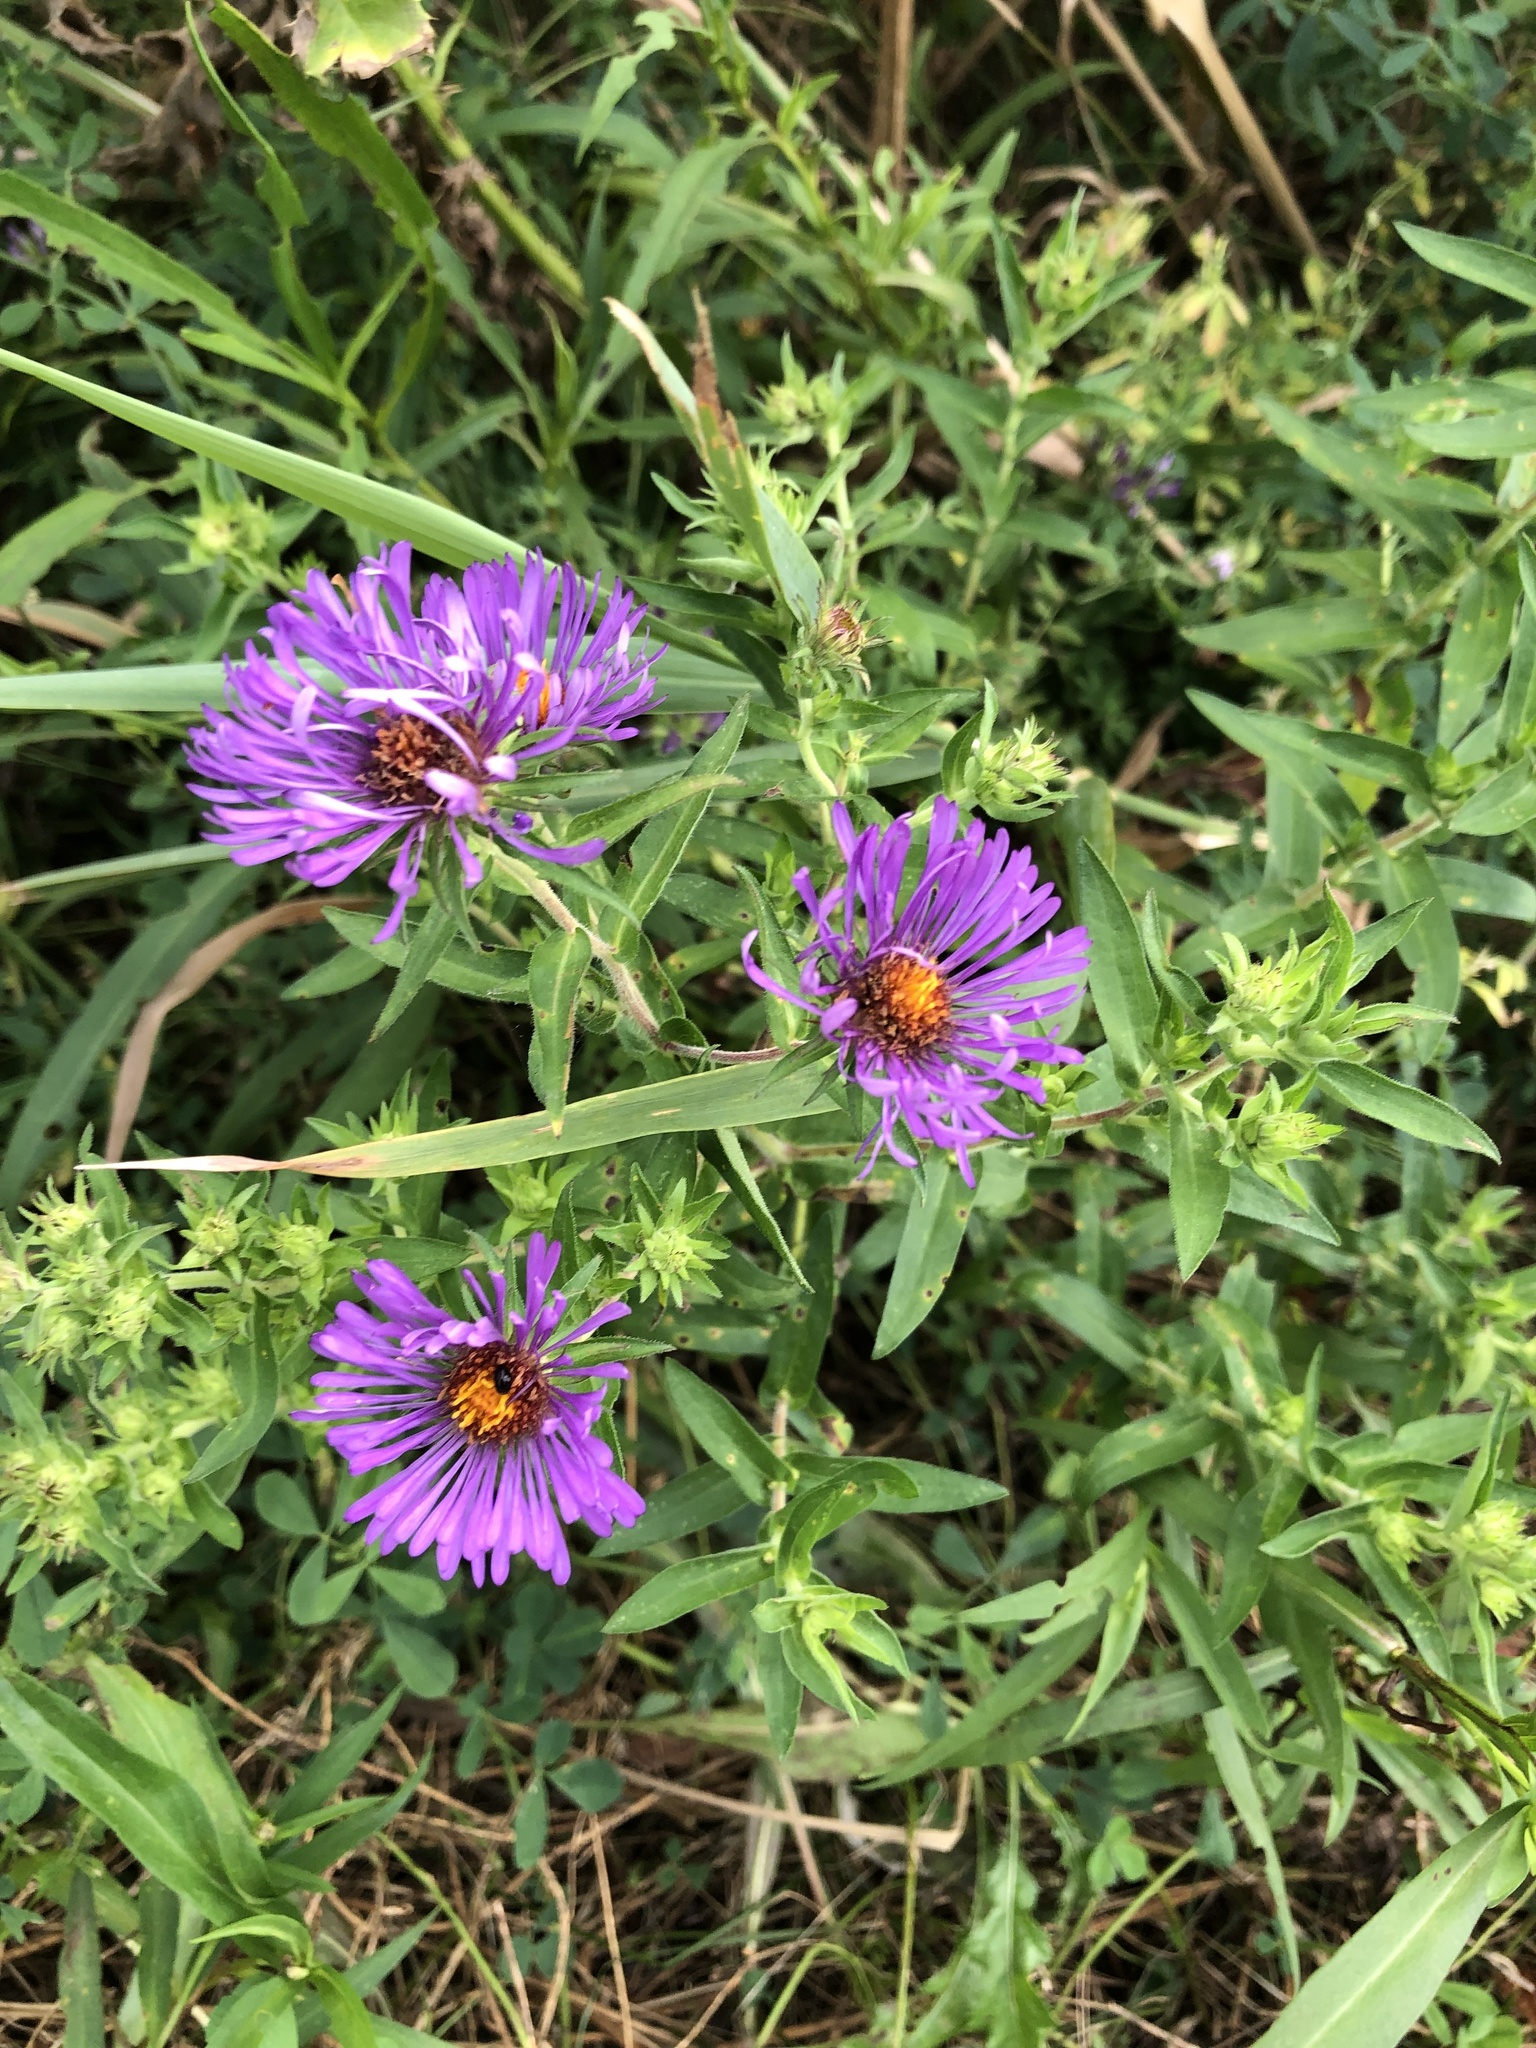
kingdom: Plantae
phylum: Tracheophyta
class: Magnoliopsida
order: Asterales
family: Asteraceae
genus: Symphyotrichum
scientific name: Symphyotrichum novae-angliae
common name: Michaelmas daisy
